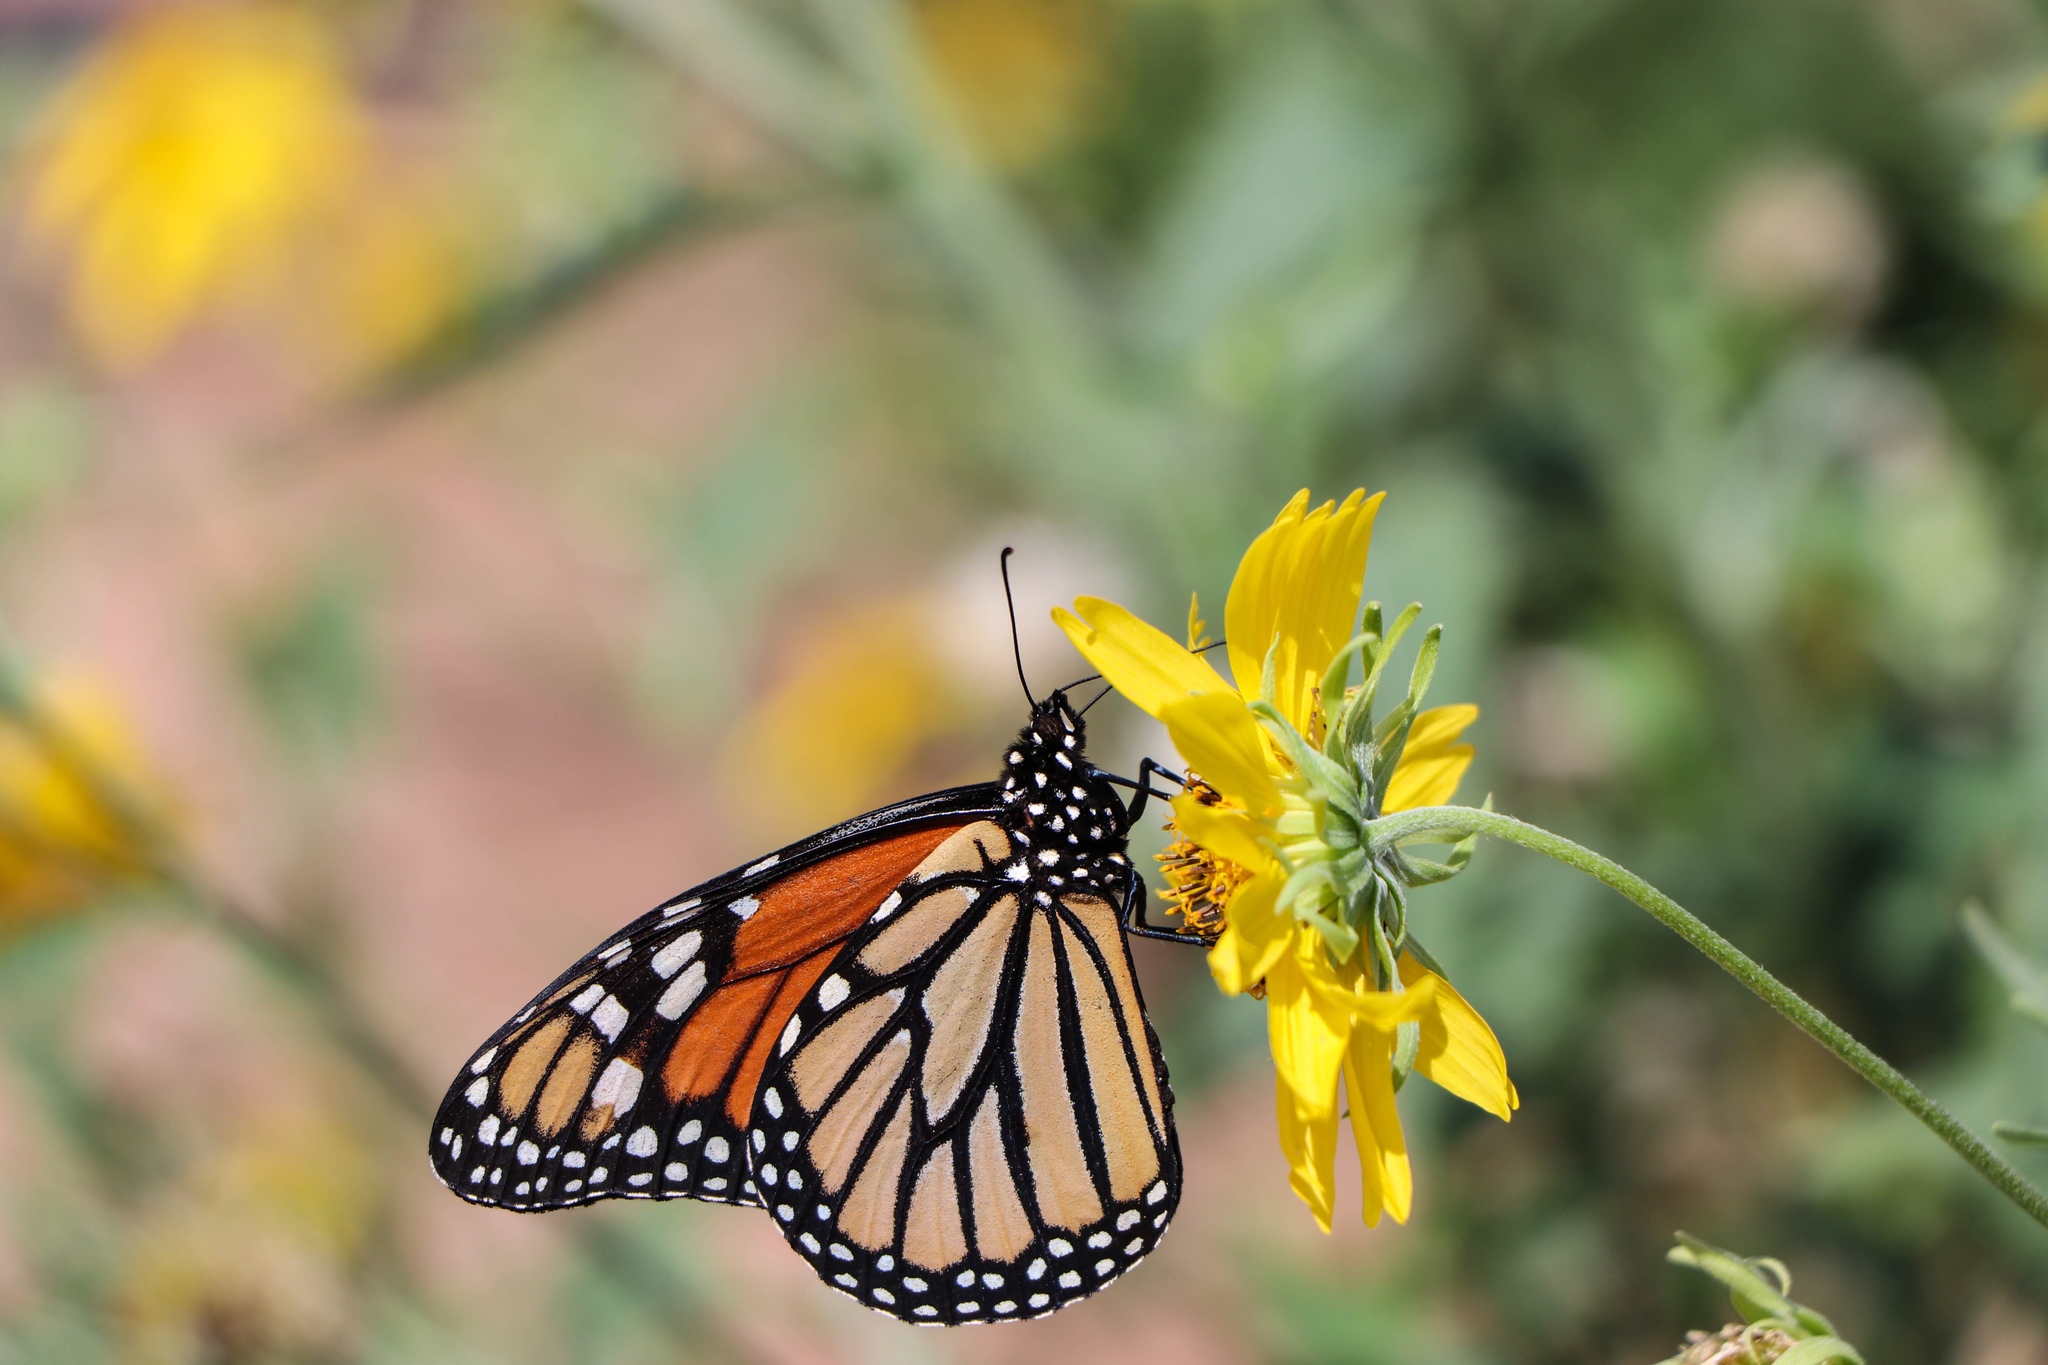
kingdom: Animalia
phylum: Arthropoda
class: Insecta
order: Lepidoptera
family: Nymphalidae
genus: Danaus
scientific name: Danaus plexippus
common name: Monarch
